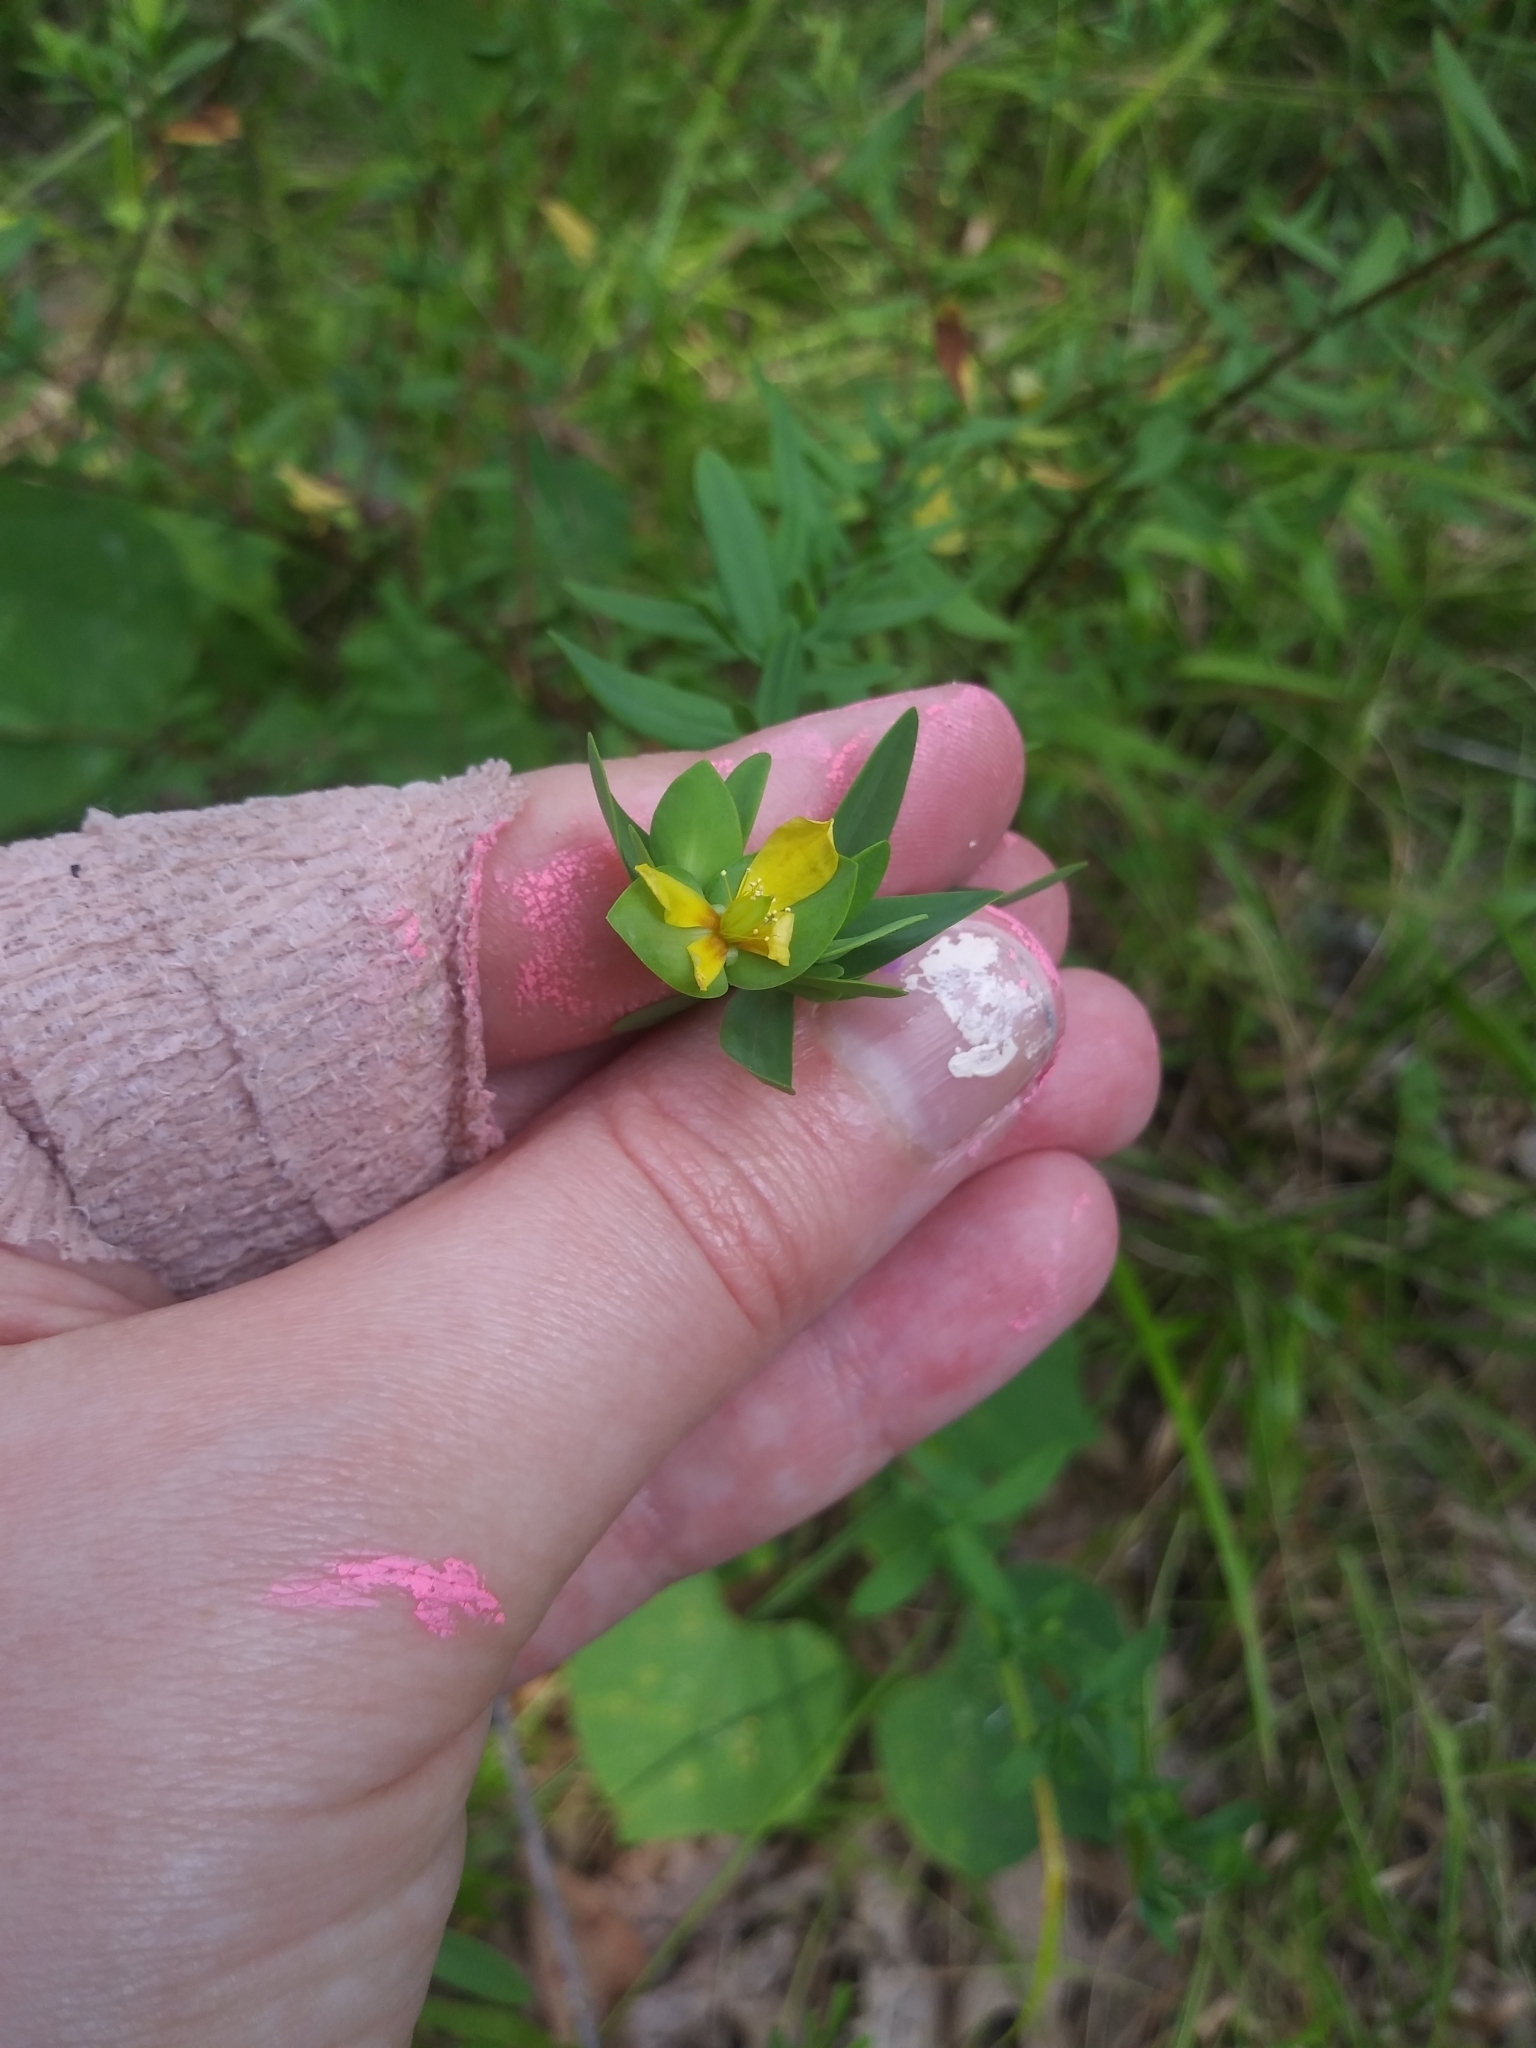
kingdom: Plantae
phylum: Tracheophyta
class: Magnoliopsida
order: Malpighiales
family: Hypericaceae
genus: Hypericum
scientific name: Hypericum hypericoides
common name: St. andrew's cross
